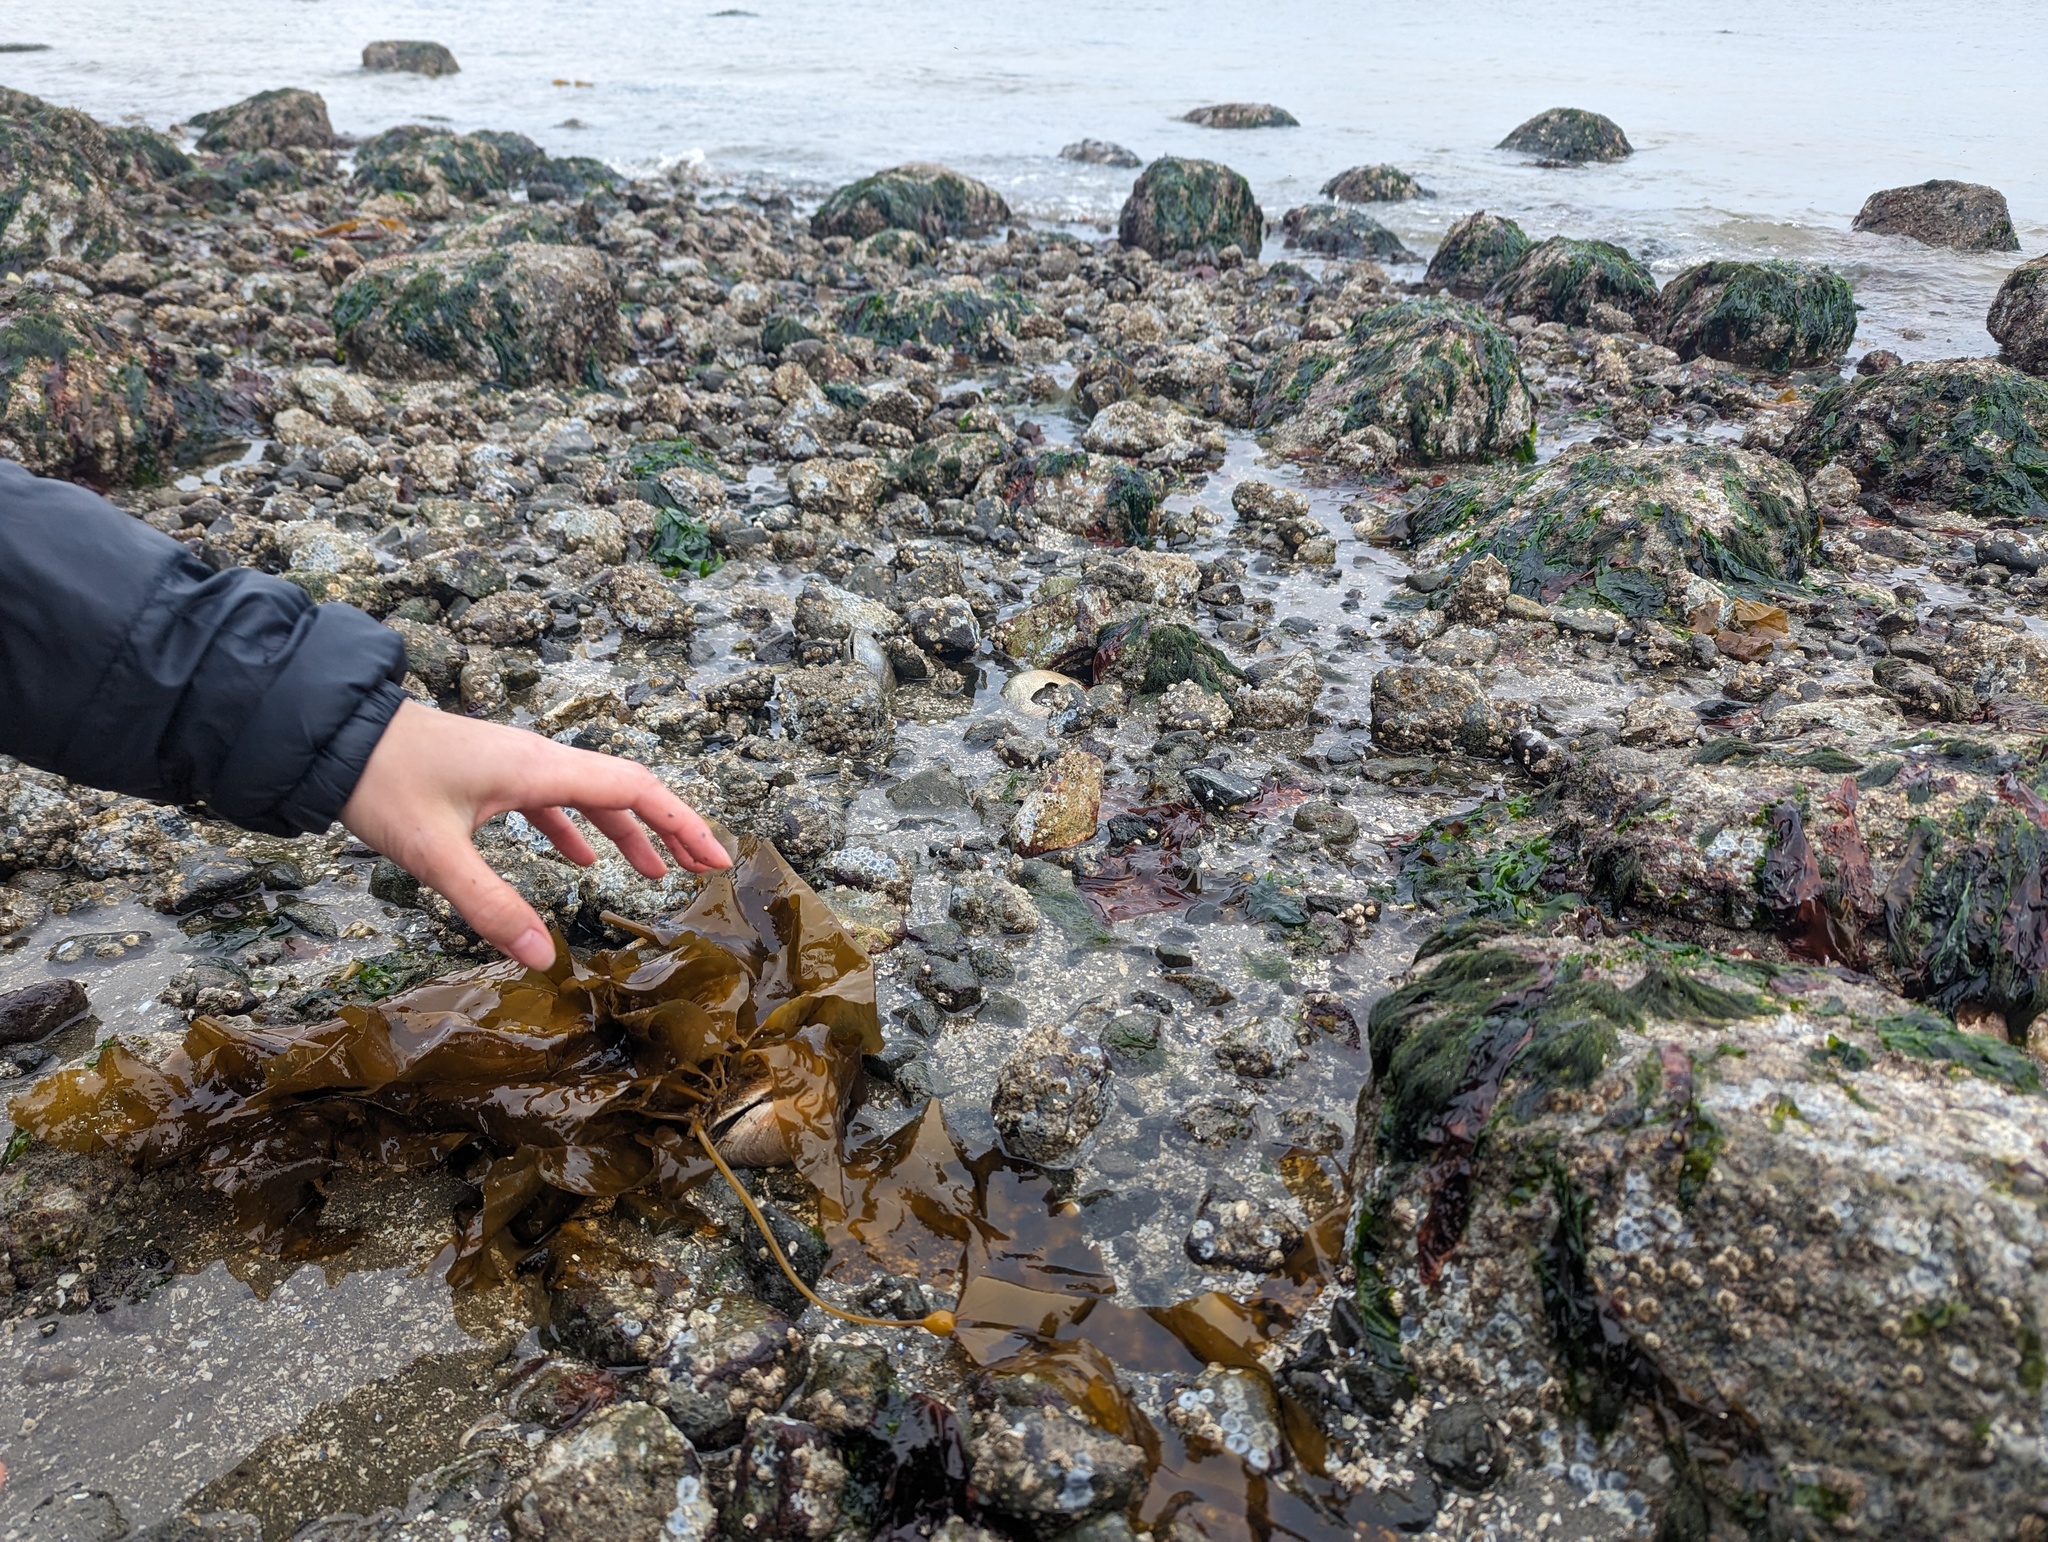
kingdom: Chromista
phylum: Ochrophyta
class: Phaeophyceae
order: Laminariales
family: Laminariaceae
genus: Nereocystis
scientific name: Nereocystis luetkeana
